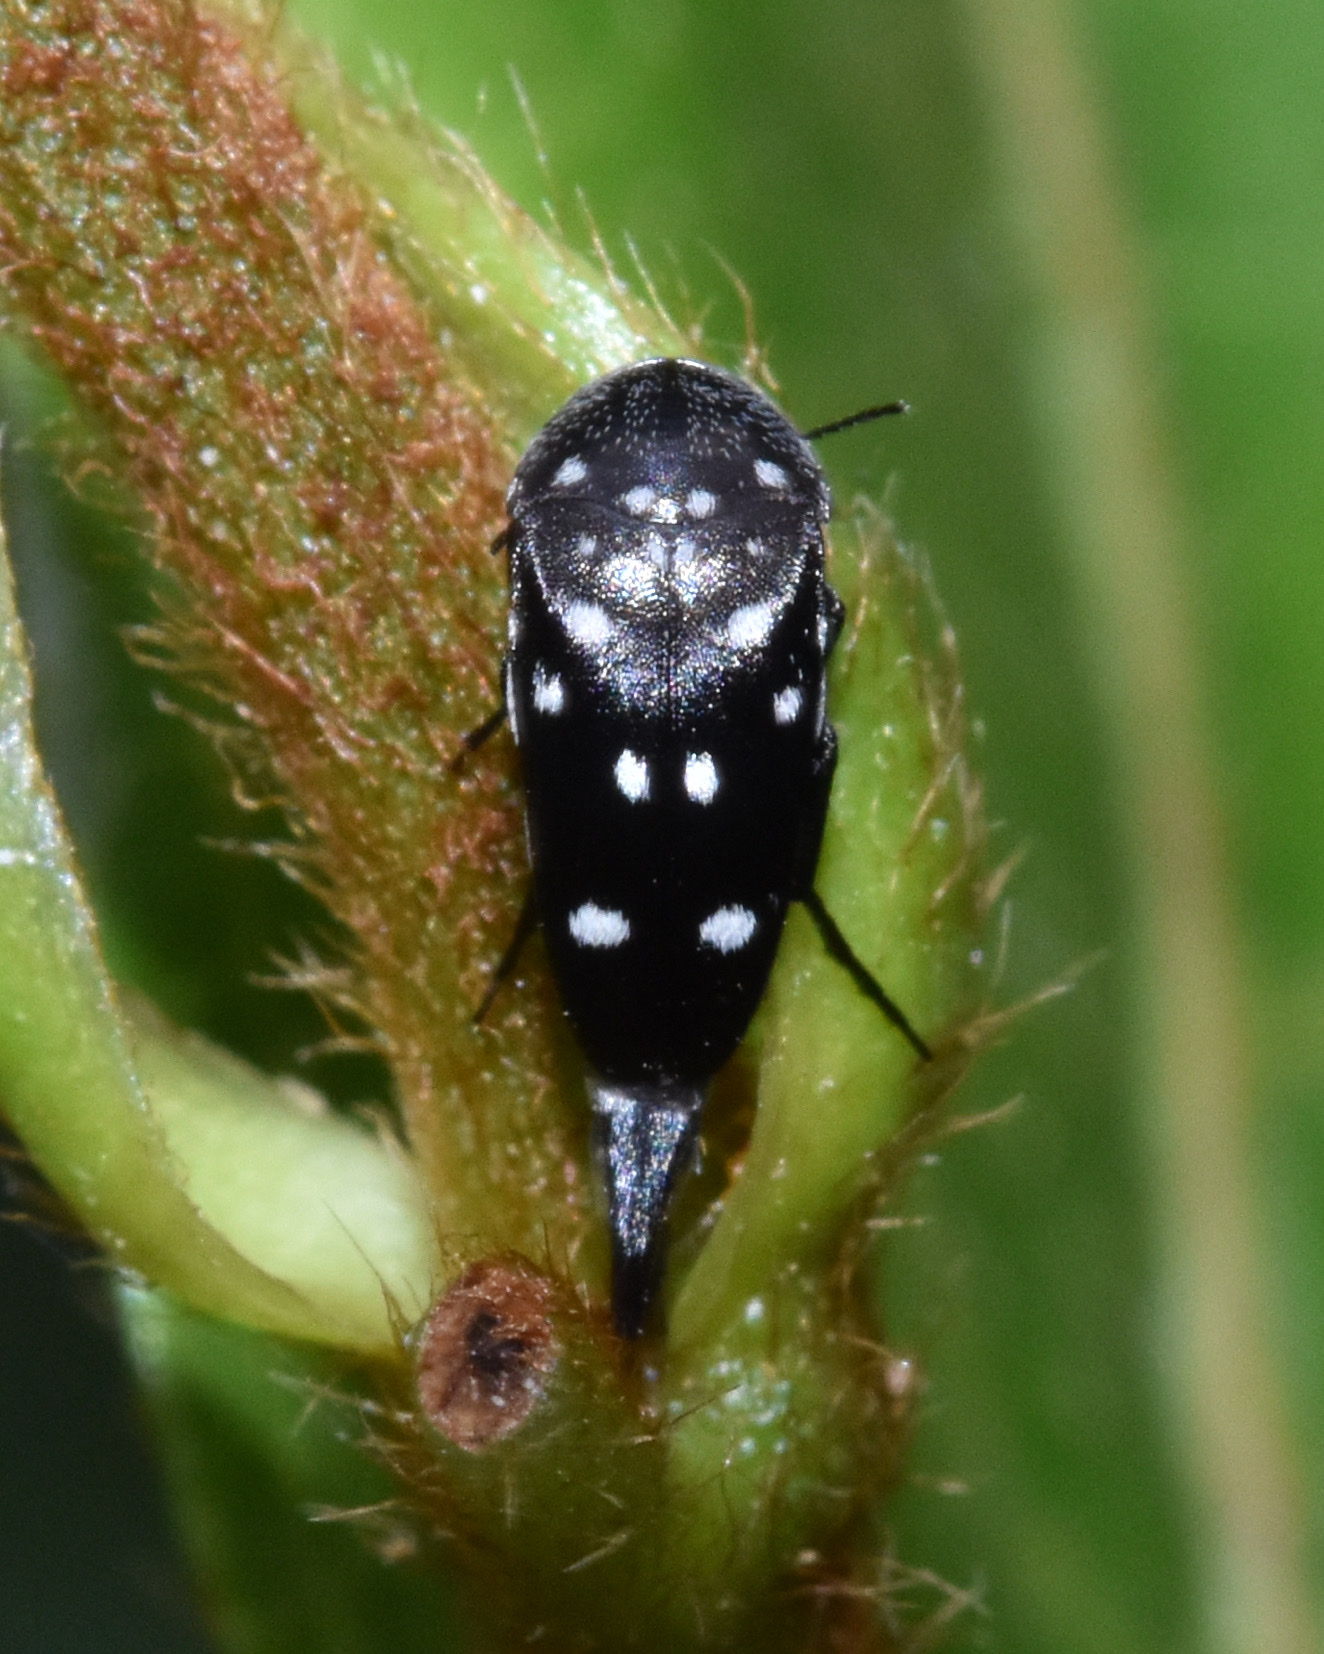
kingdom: Animalia
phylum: Arthropoda
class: Insecta
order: Coleoptera
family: Mordellidae
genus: Hoshihananomia
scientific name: Hoshihananomia
